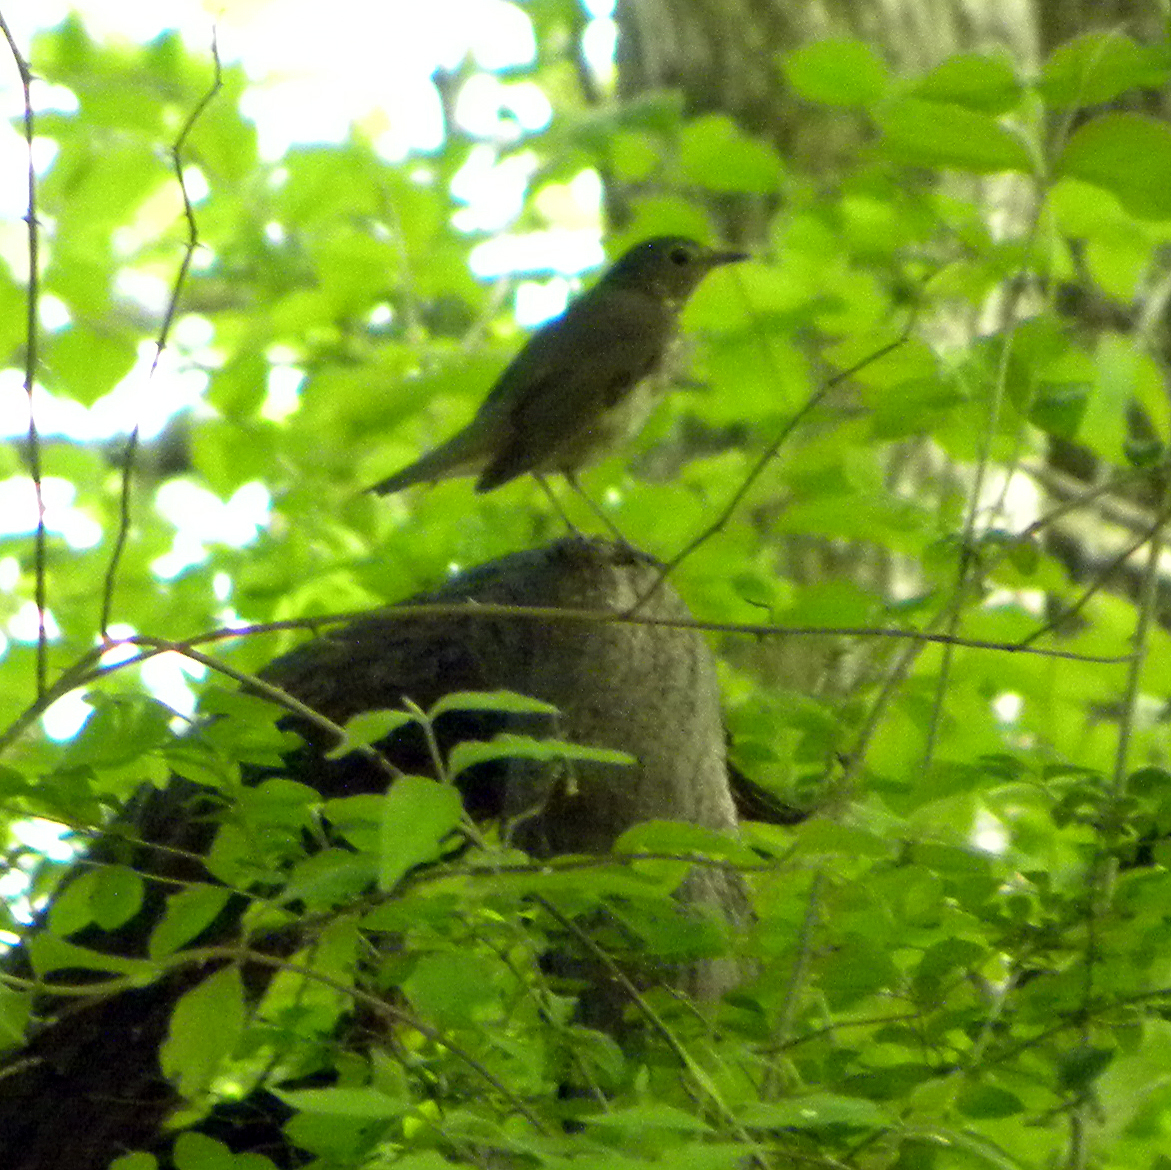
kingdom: Animalia
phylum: Chordata
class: Aves
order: Passeriformes
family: Turdidae
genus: Catharus
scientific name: Catharus ustulatus
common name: Swainson's thrush
